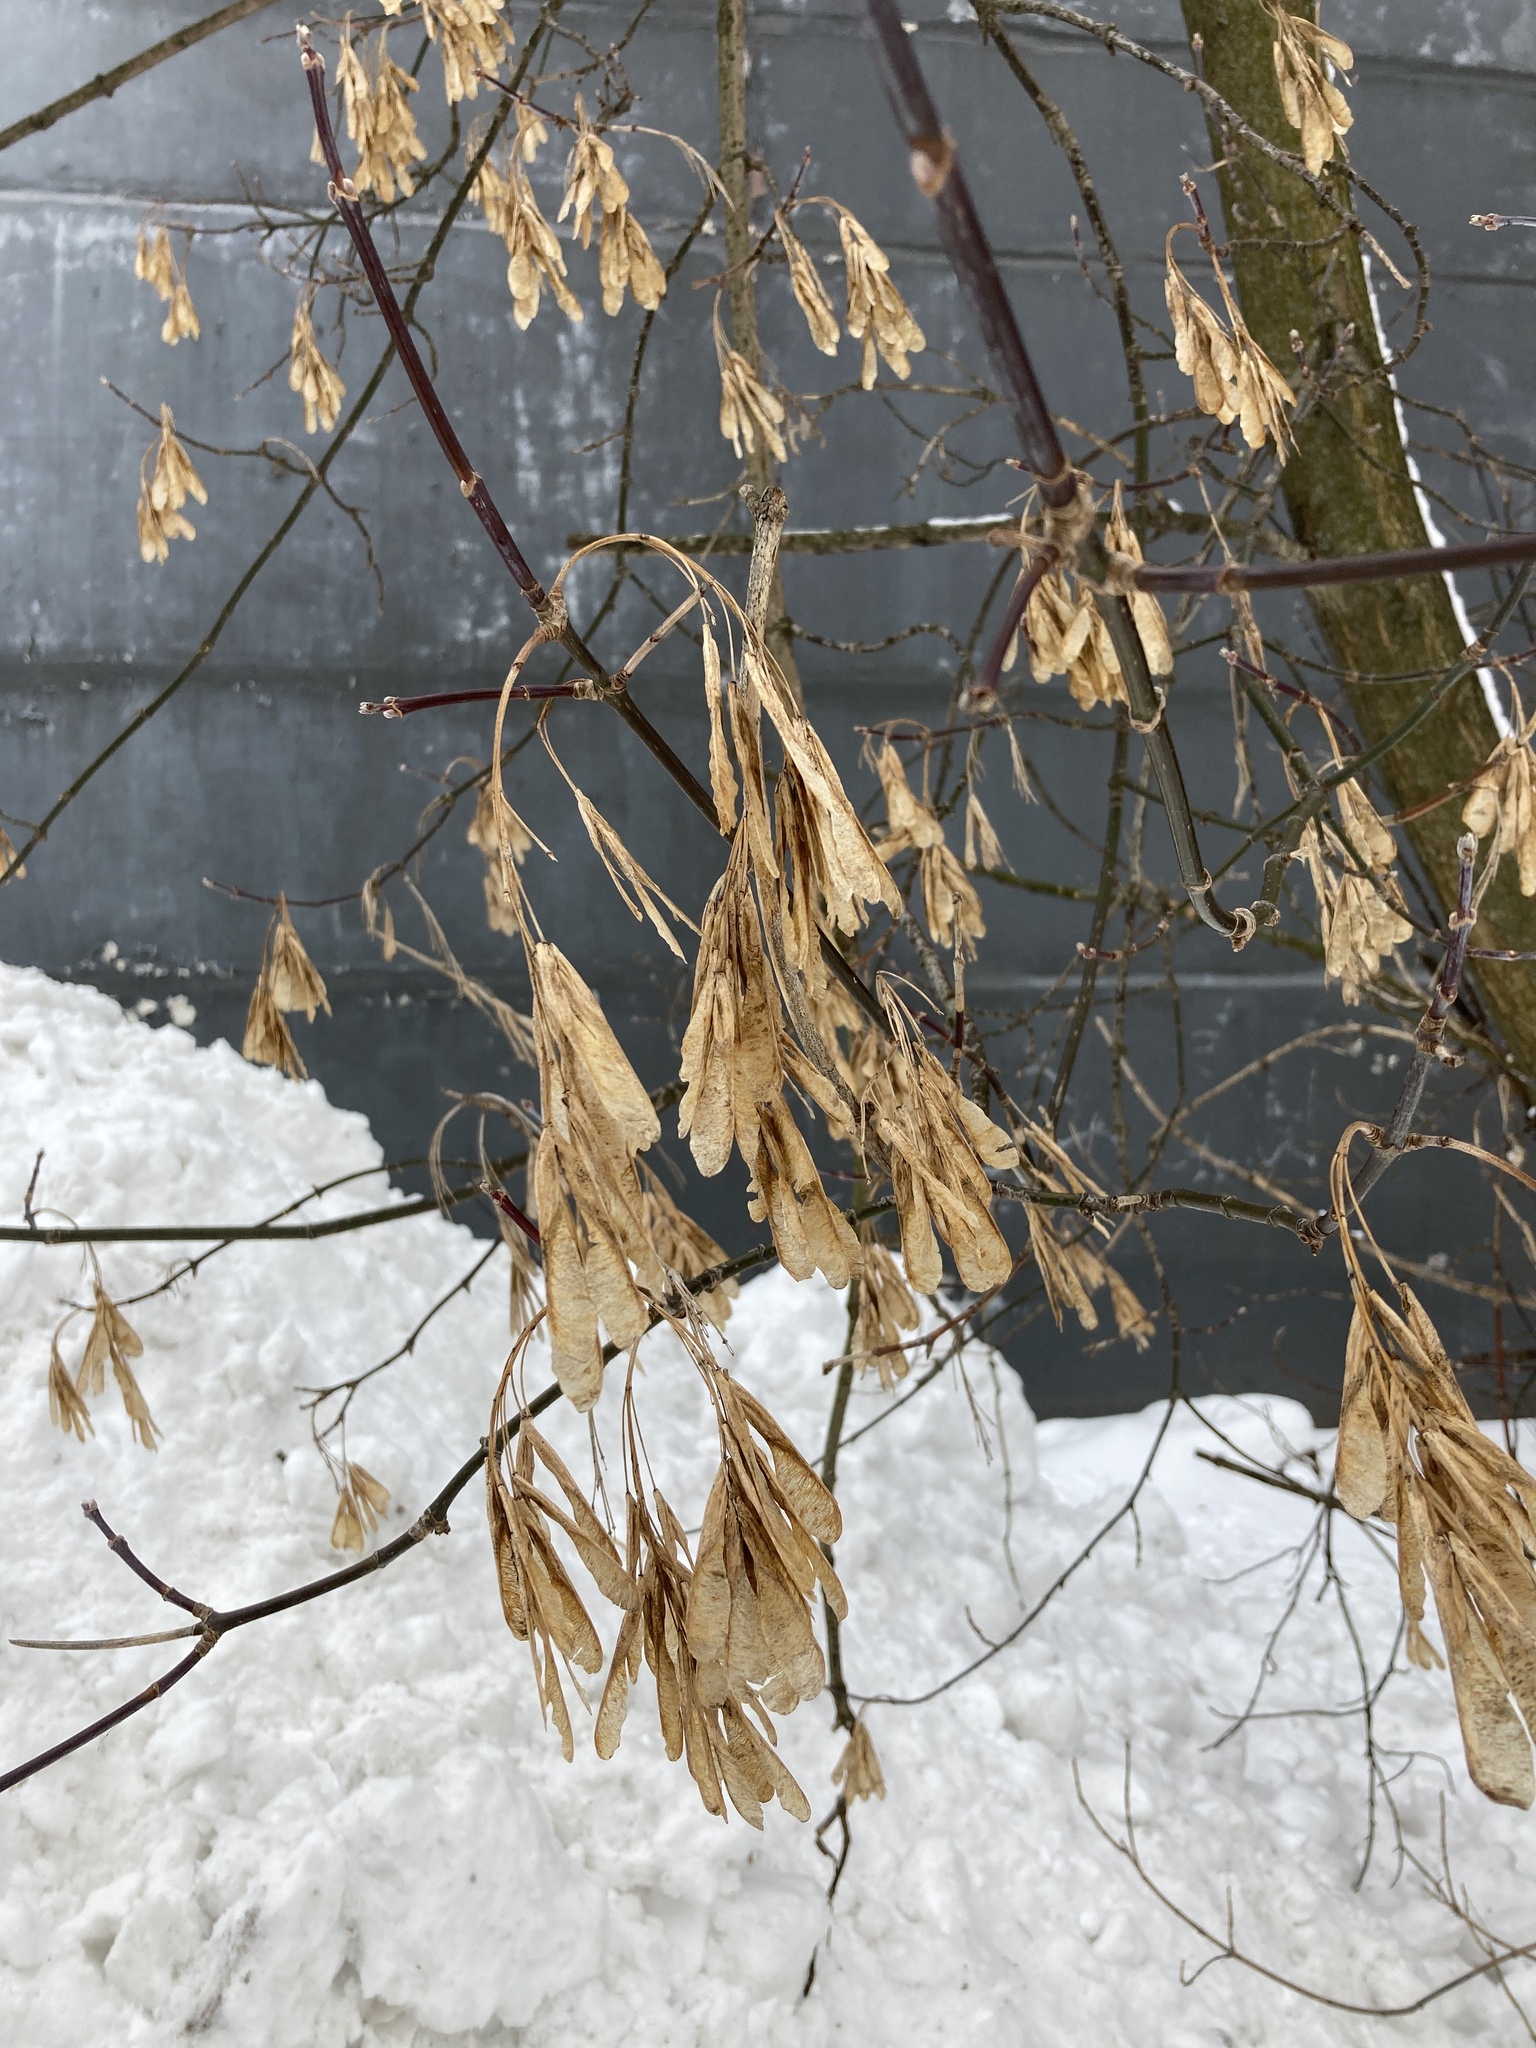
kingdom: Plantae
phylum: Tracheophyta
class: Magnoliopsida
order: Sapindales
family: Sapindaceae
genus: Acer
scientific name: Acer negundo
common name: Ashleaf maple
